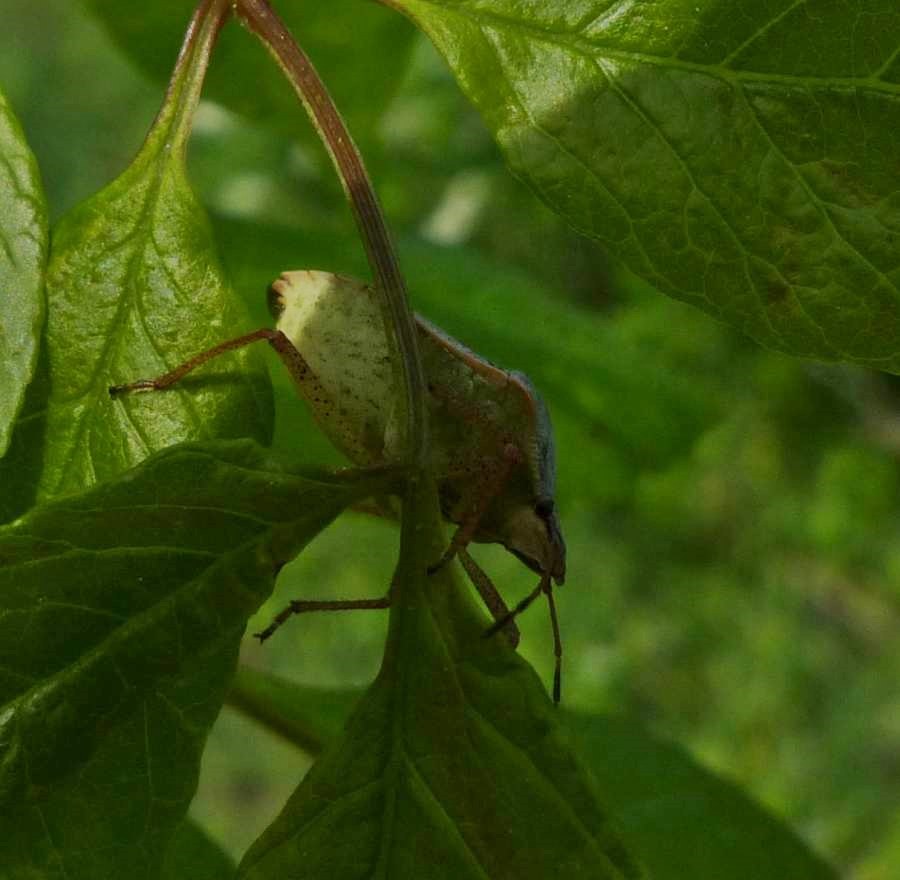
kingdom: Animalia
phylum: Arthropoda
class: Insecta
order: Hemiptera
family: Pentatomidae
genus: Euschistus
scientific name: Euschistus servus
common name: Brown stink bug
